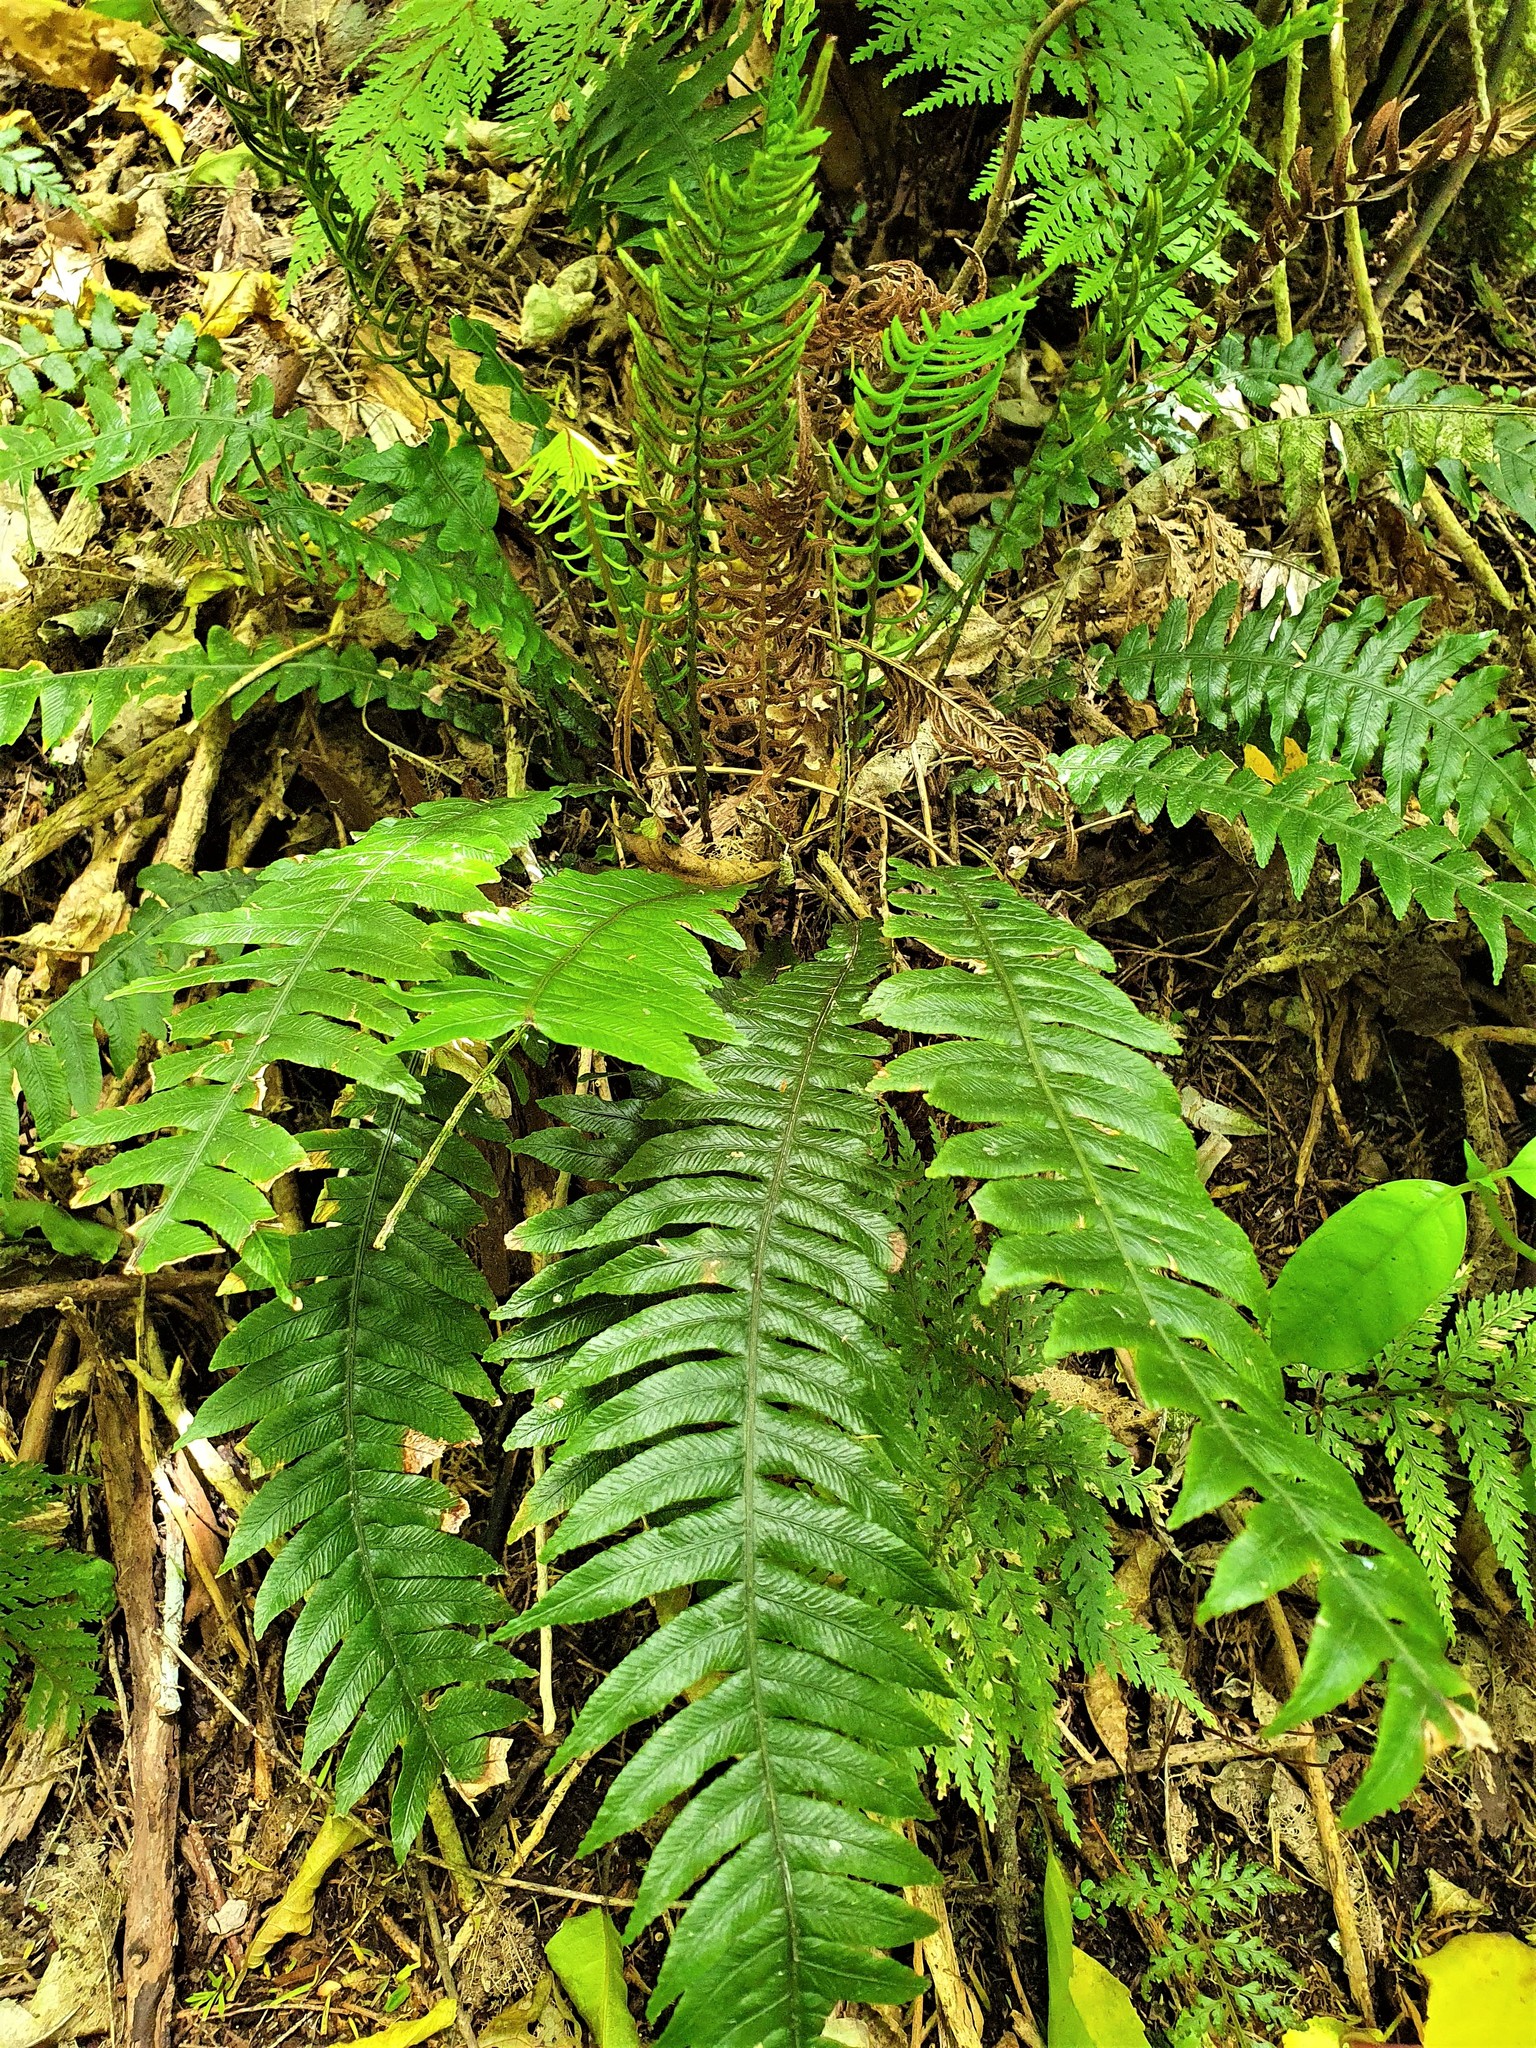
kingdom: Plantae
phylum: Tracheophyta
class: Polypodiopsida
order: Polypodiales
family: Blechnaceae
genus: Austroblechnum
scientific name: Austroblechnum lanceolatum
